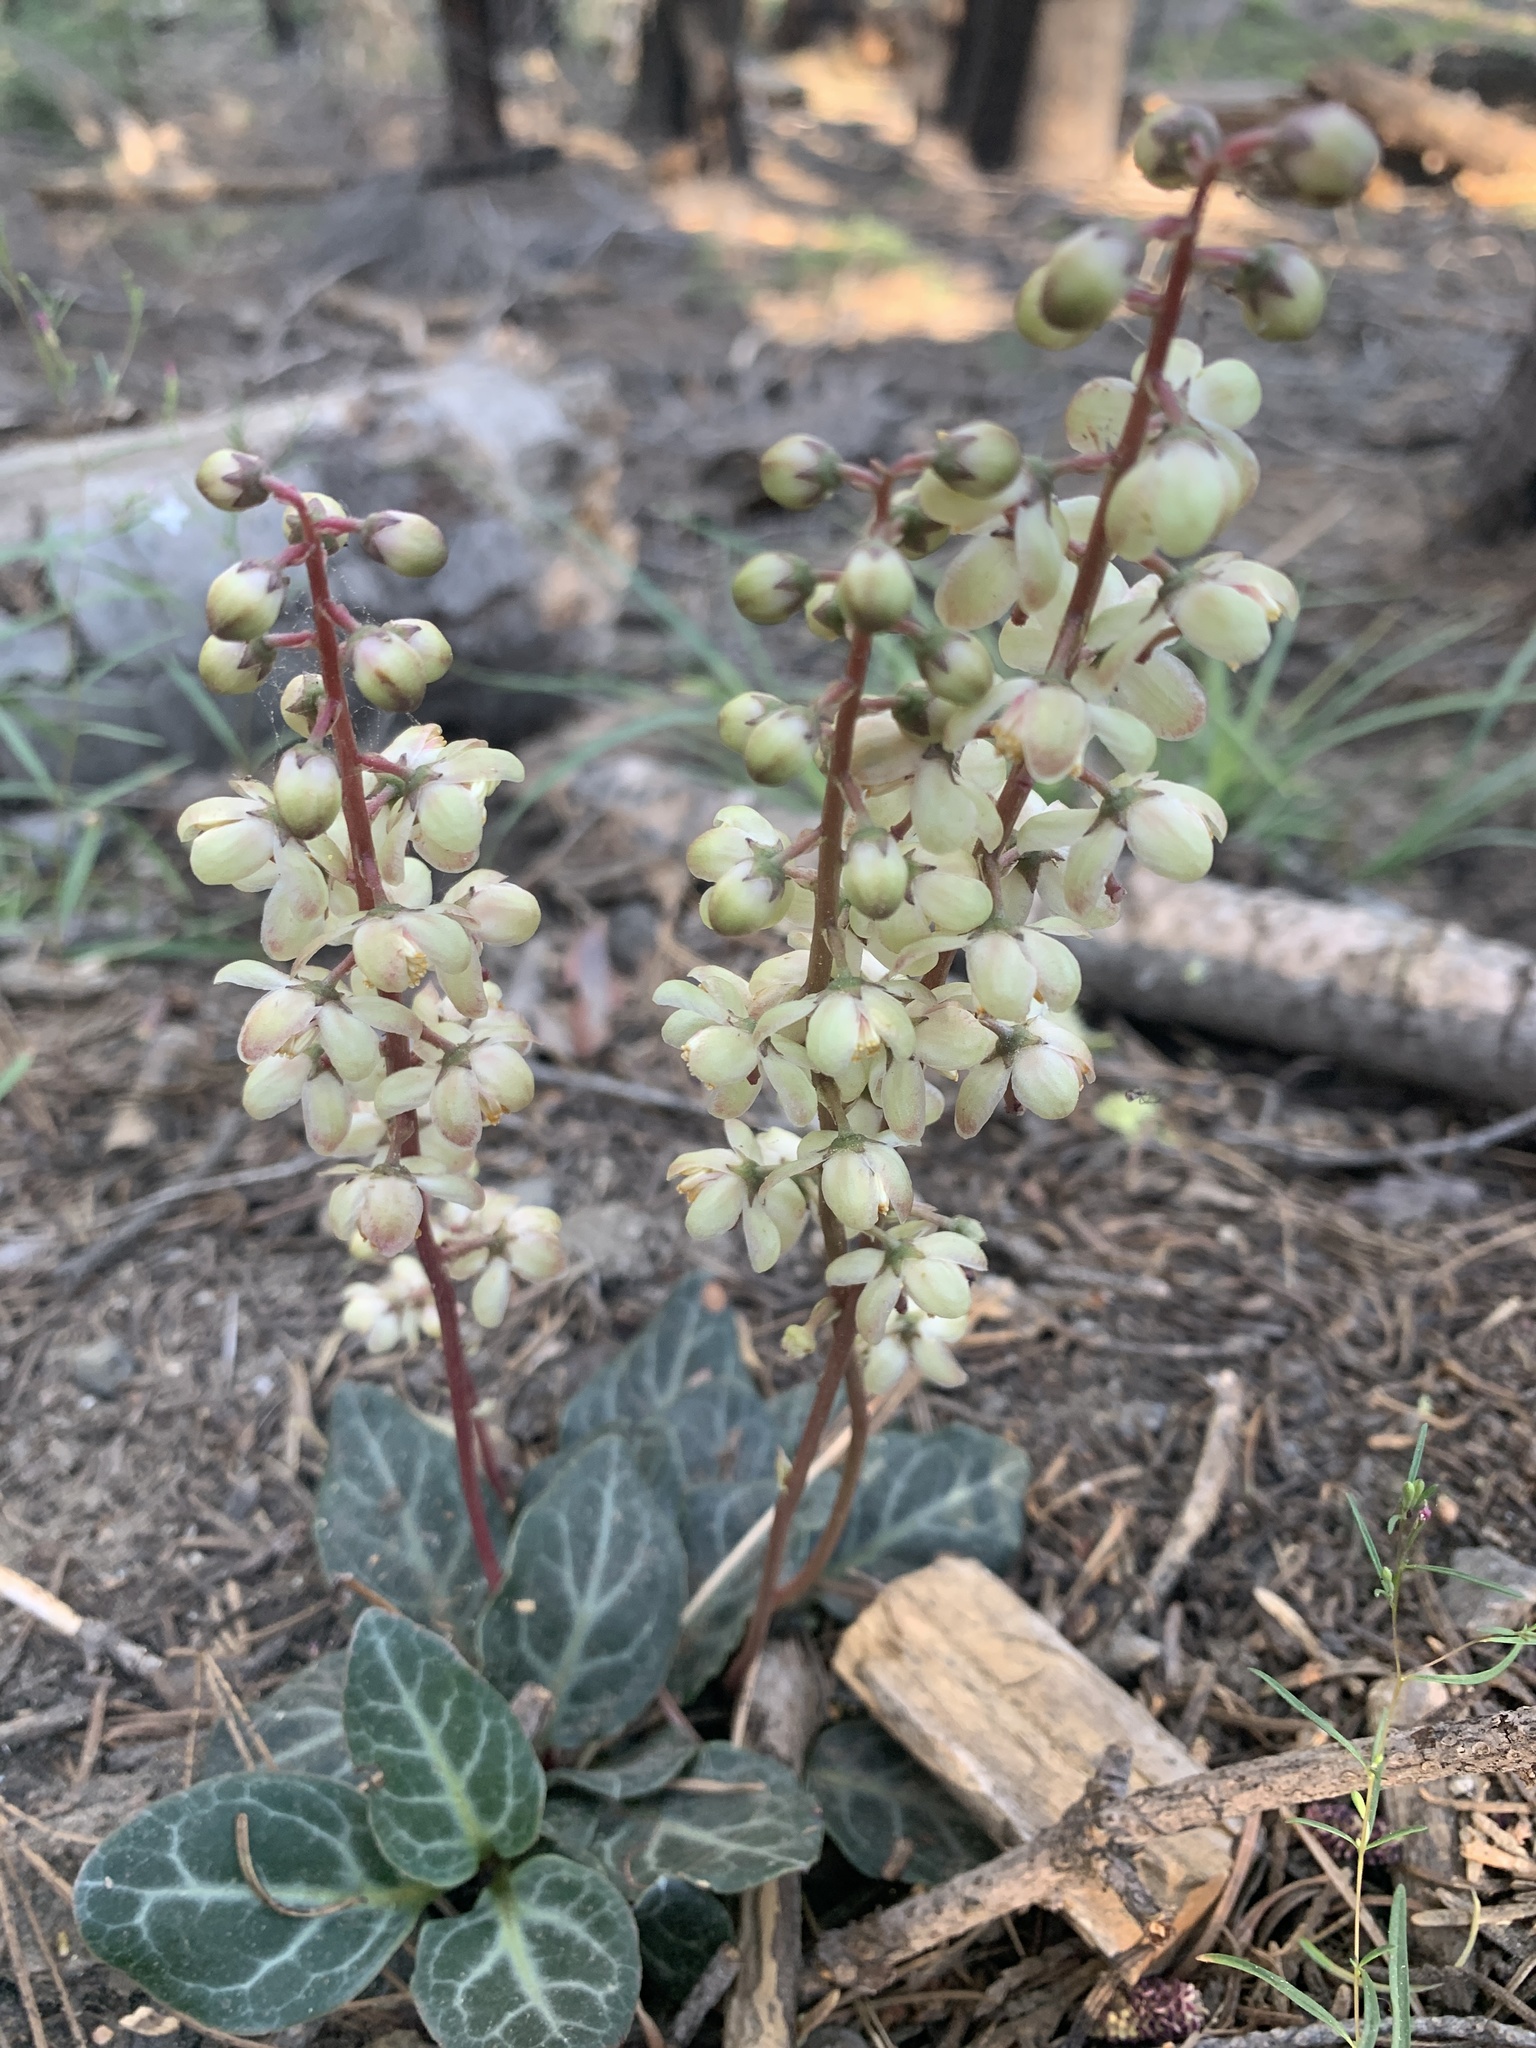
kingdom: Plantae
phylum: Tracheophyta
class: Magnoliopsida
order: Ericales
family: Ericaceae
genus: Pyrola
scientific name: Pyrola picta
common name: White-vein wintergreen
